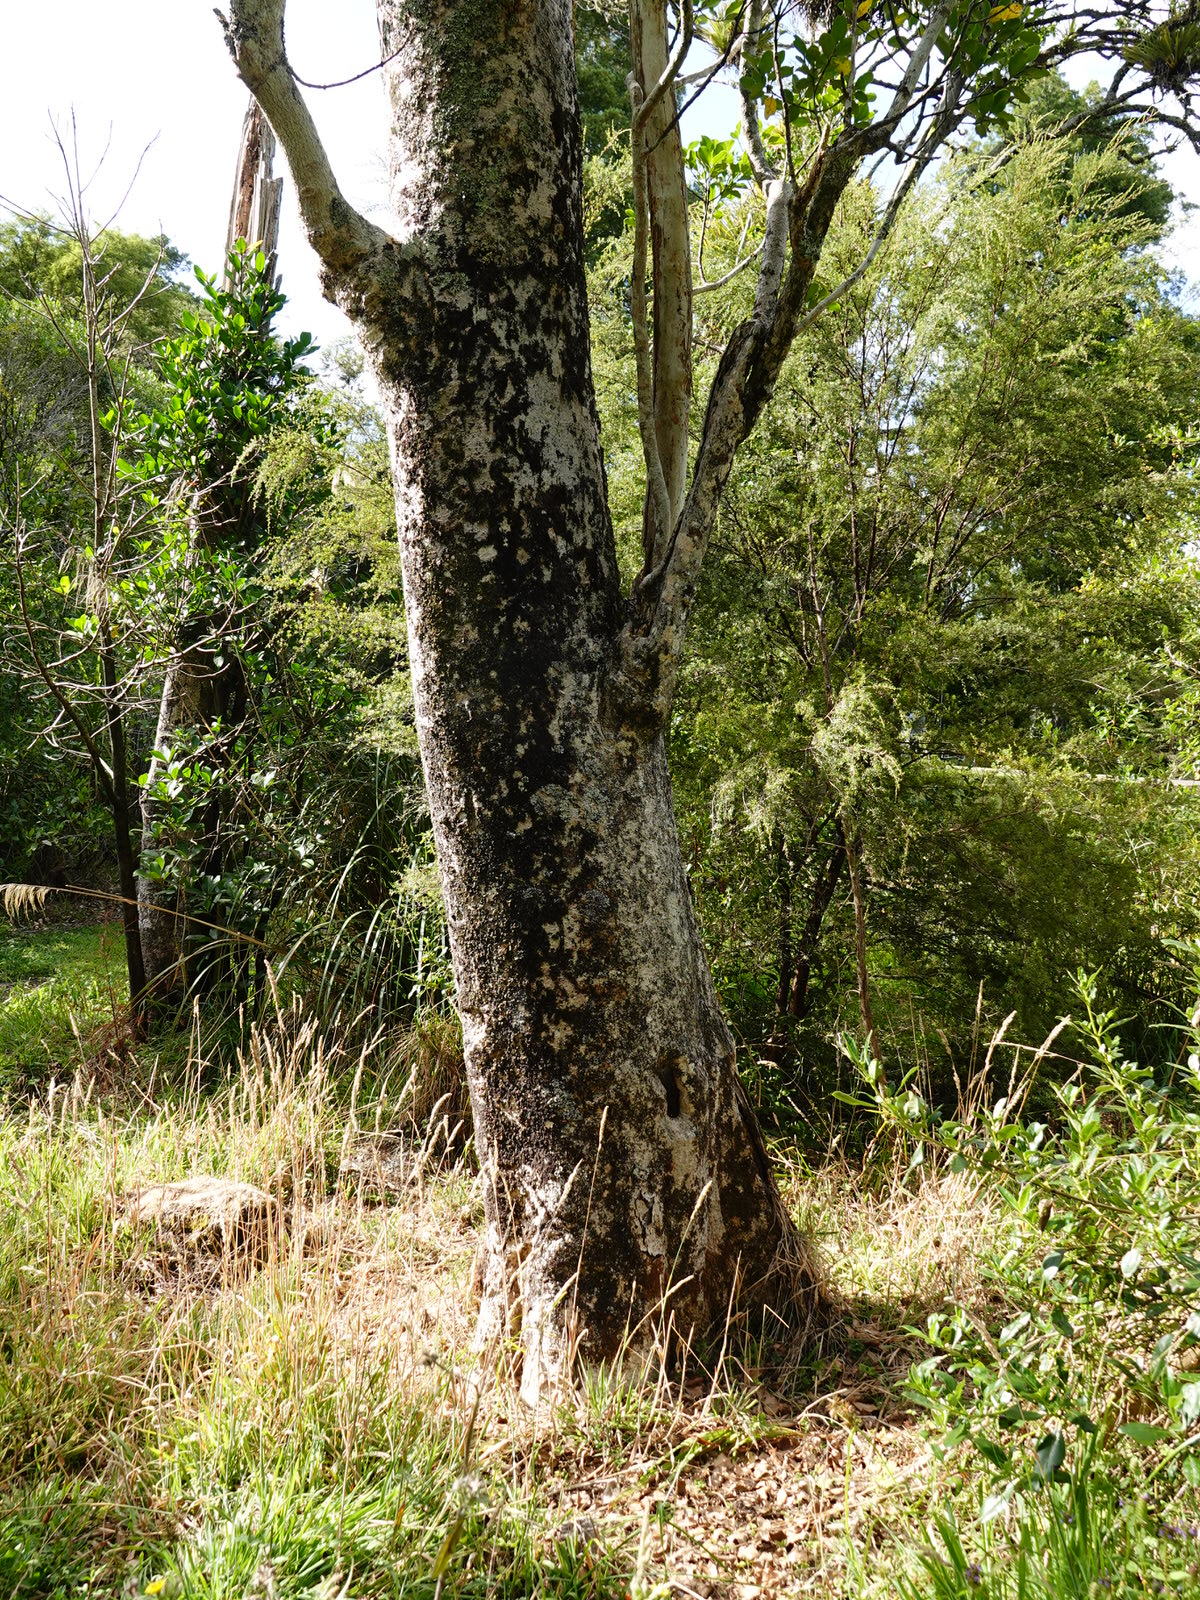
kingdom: Plantae
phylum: Tracheophyta
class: Magnoliopsida
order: Laurales
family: Atherospermataceae
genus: Laurelia
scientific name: Laurelia novae-zelandiae
